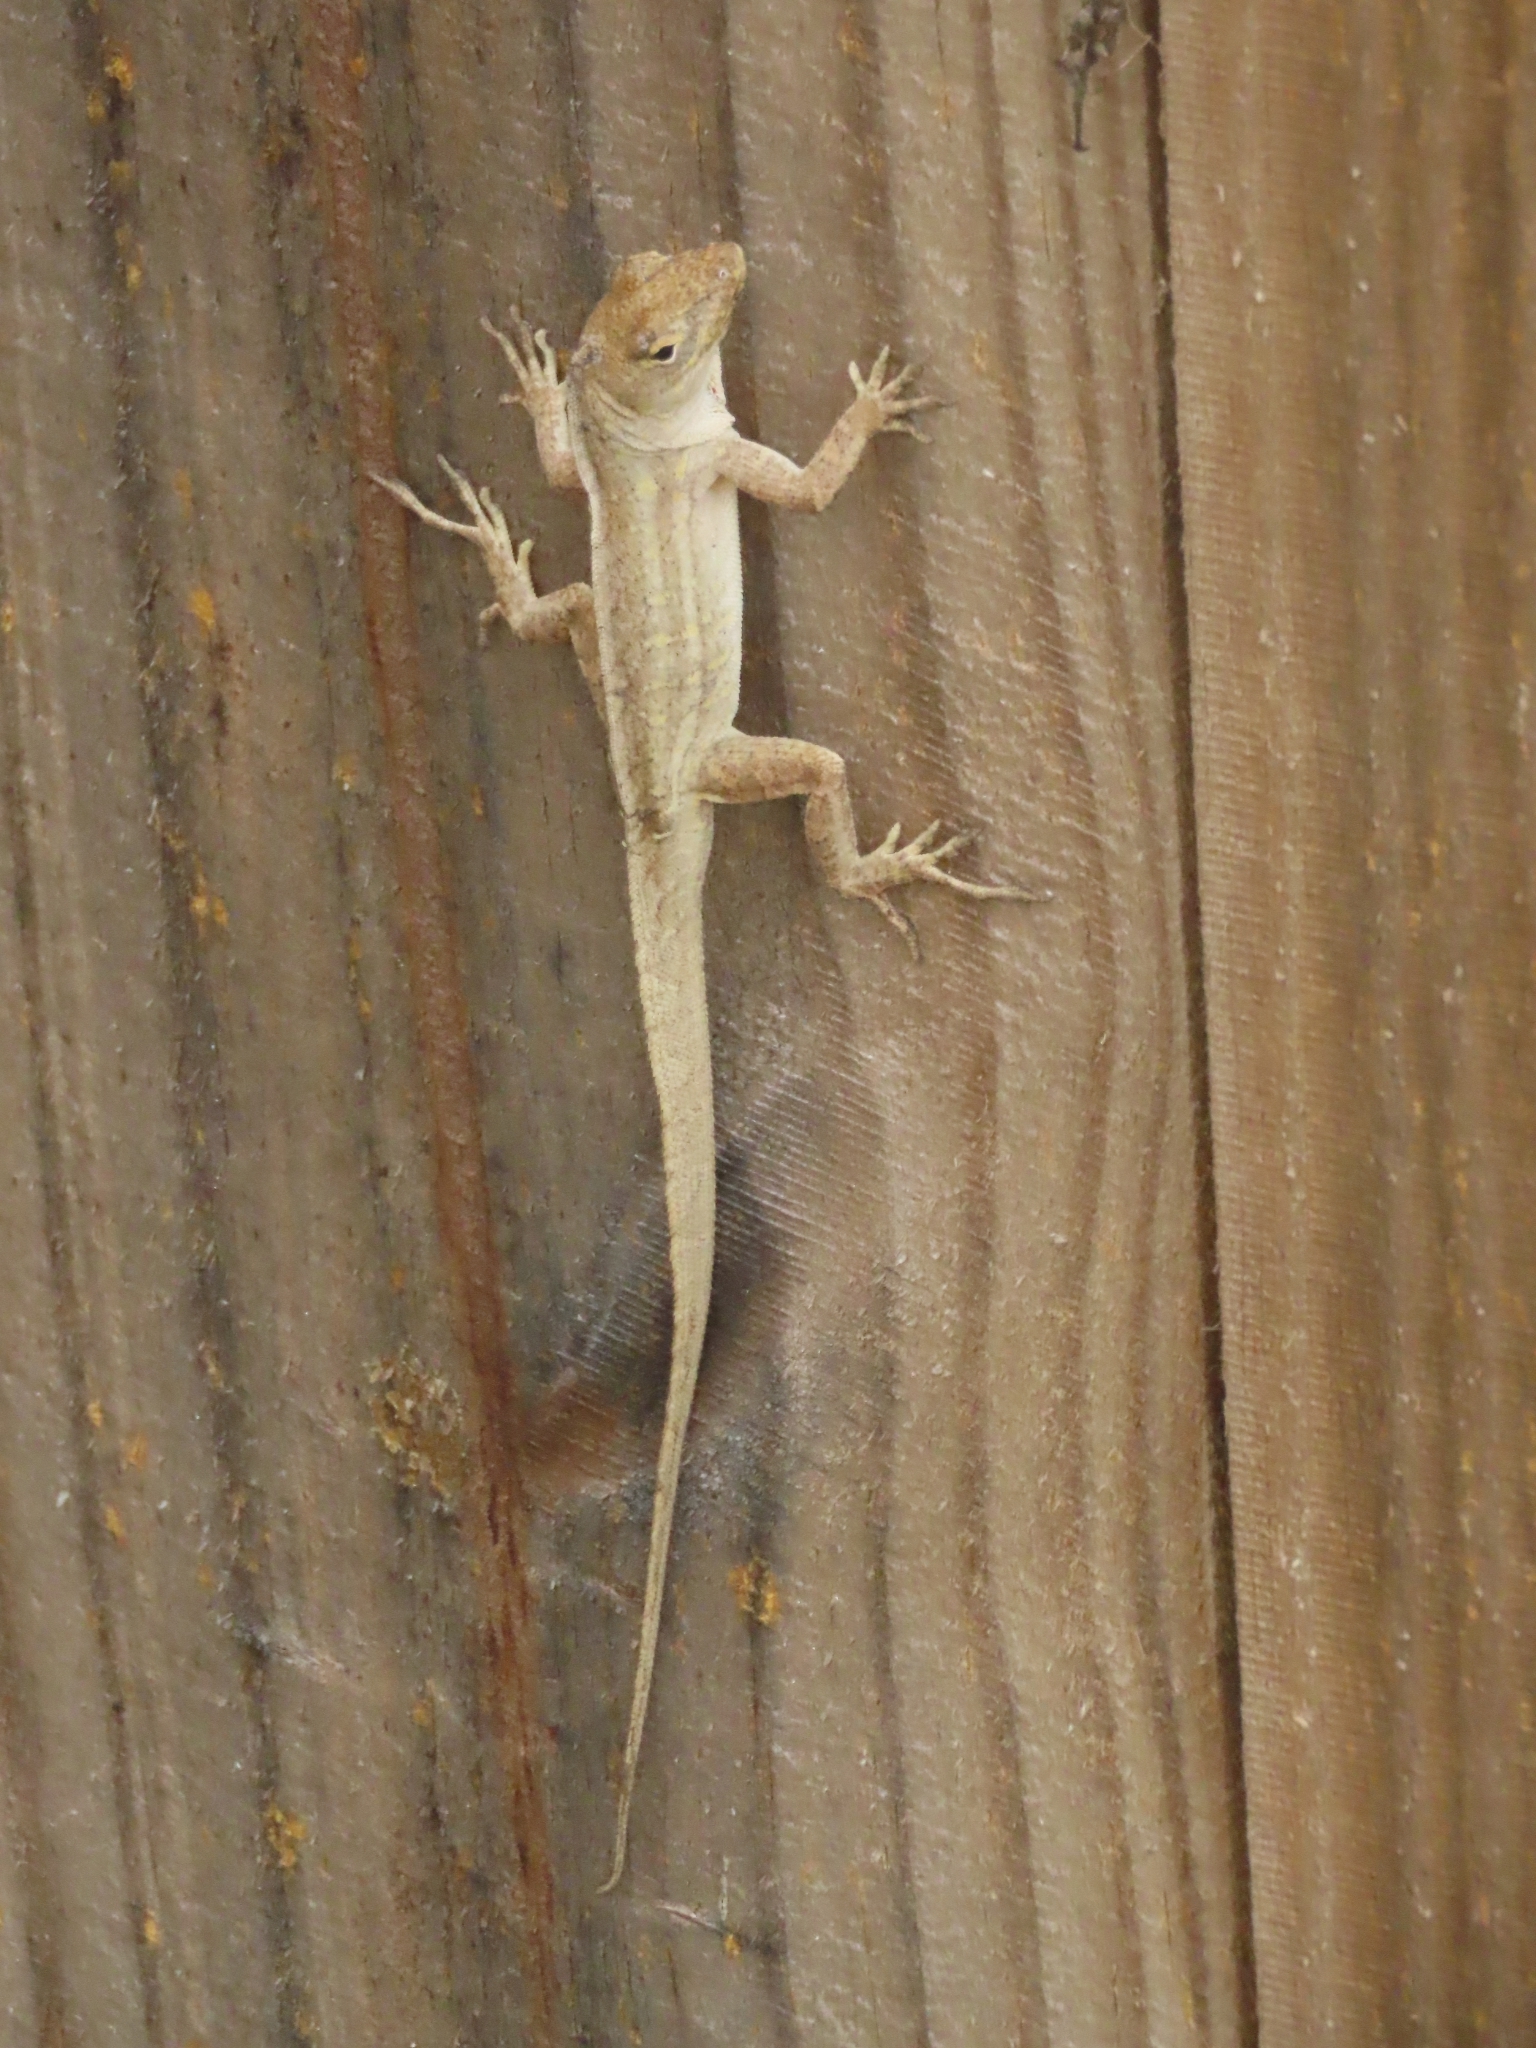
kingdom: Animalia
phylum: Chordata
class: Squamata
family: Dactyloidae
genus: Anolis
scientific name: Anolis sagrei
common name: Brown anole
